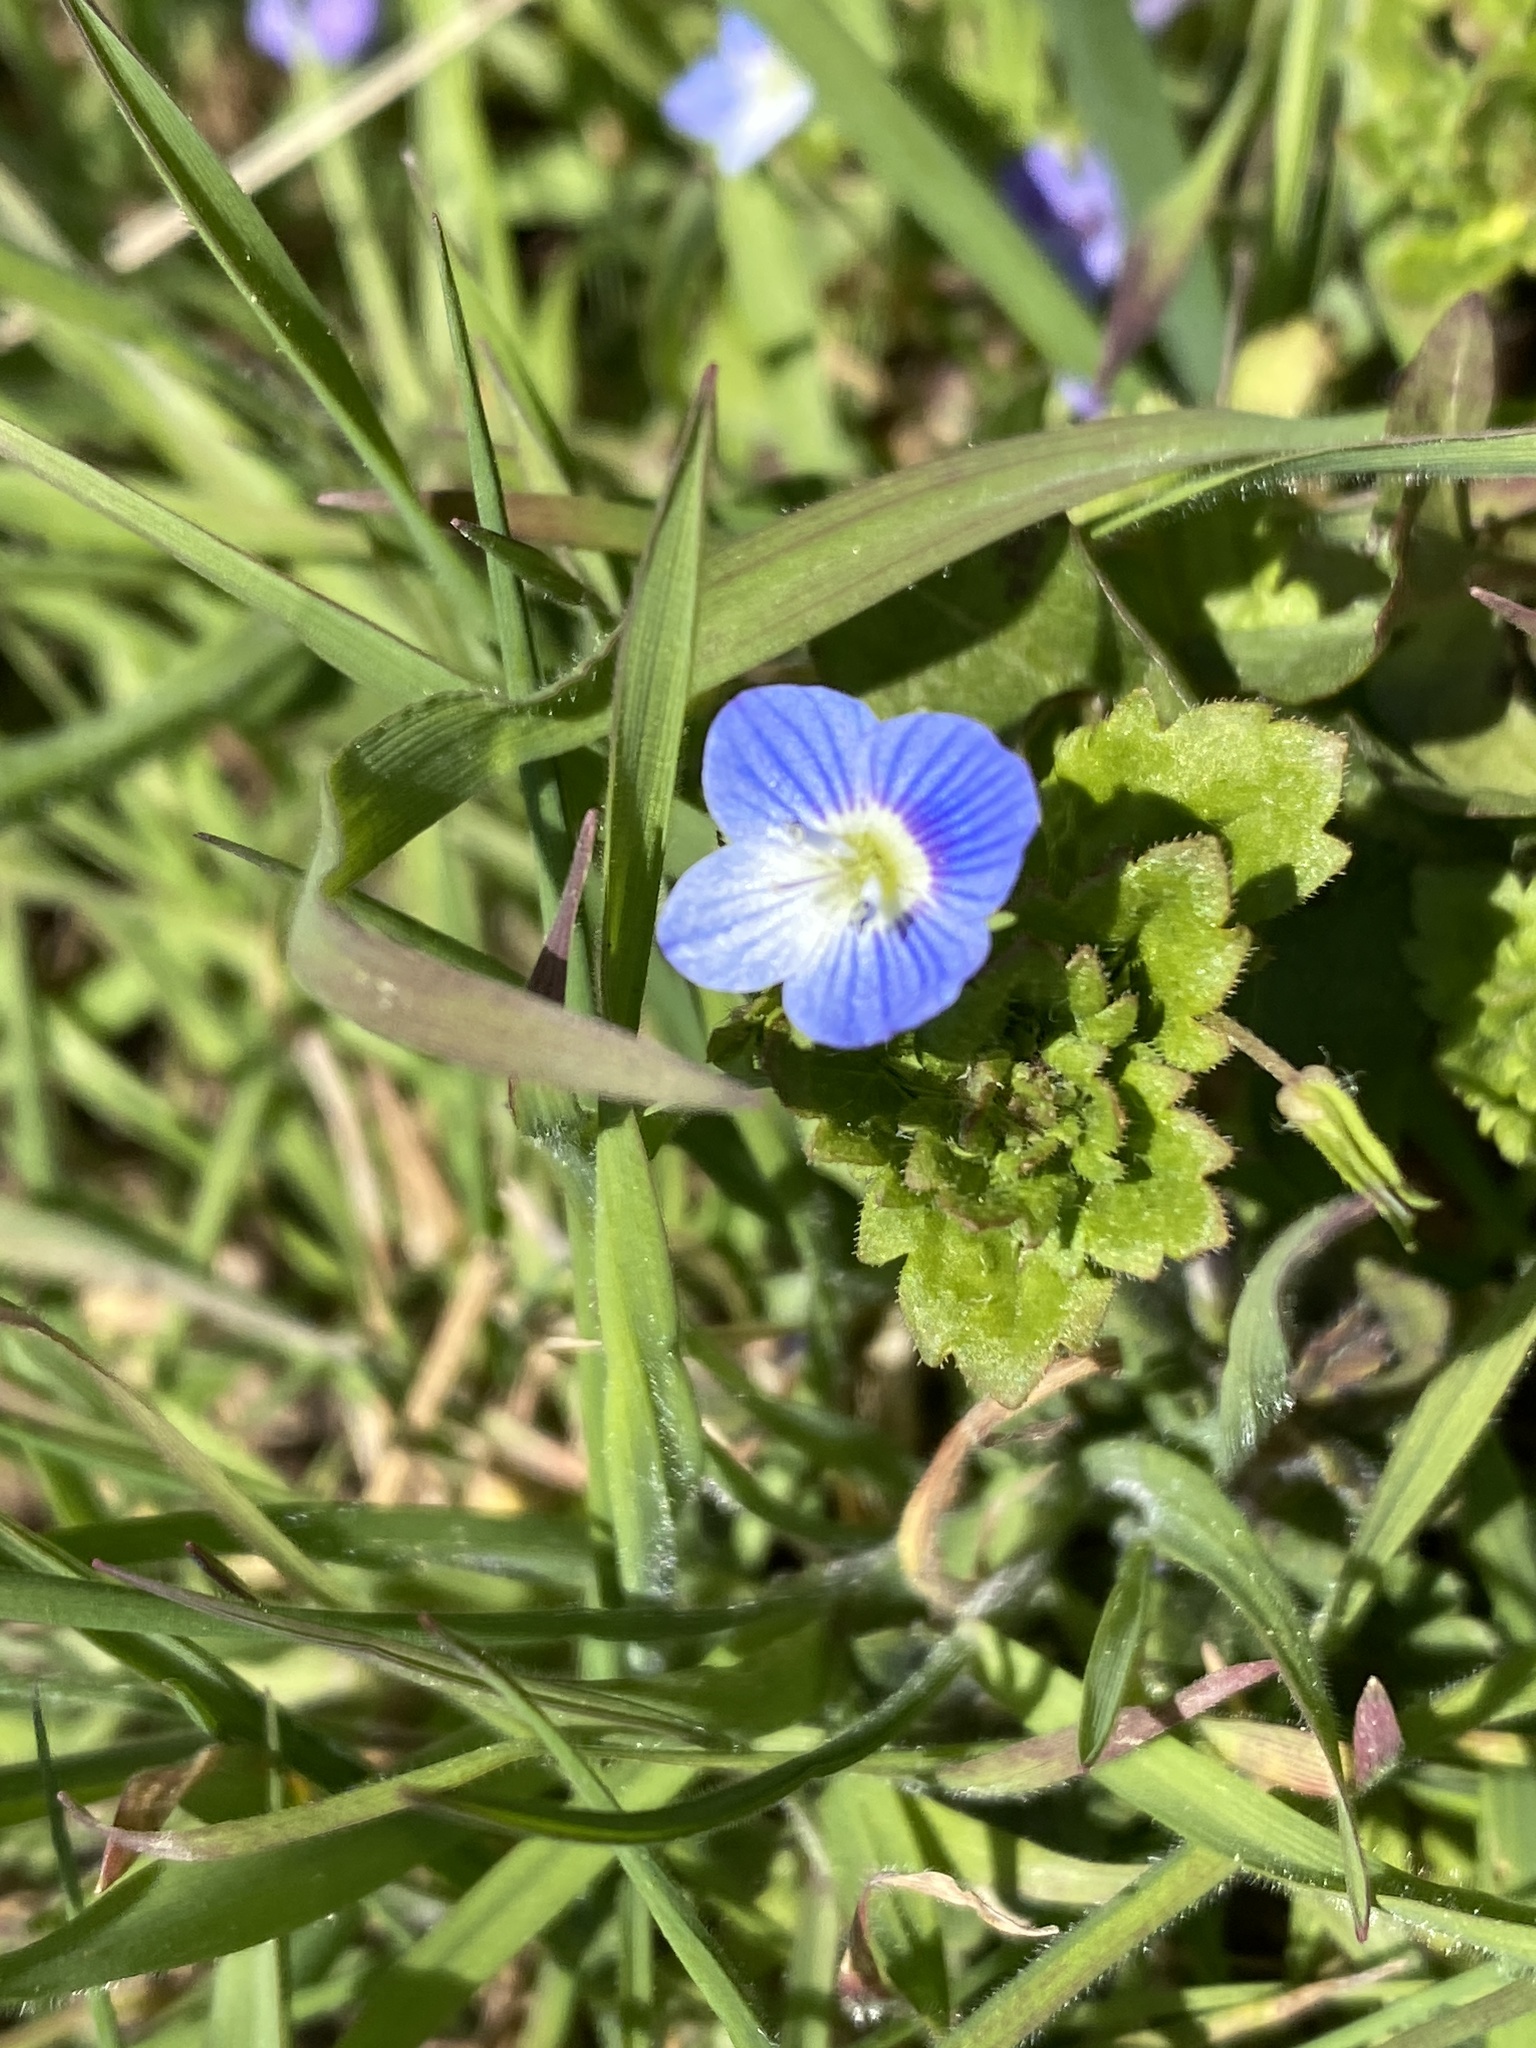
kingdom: Plantae
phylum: Tracheophyta
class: Magnoliopsida
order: Lamiales
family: Plantaginaceae
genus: Veronica
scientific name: Veronica persica
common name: Common field-speedwell
